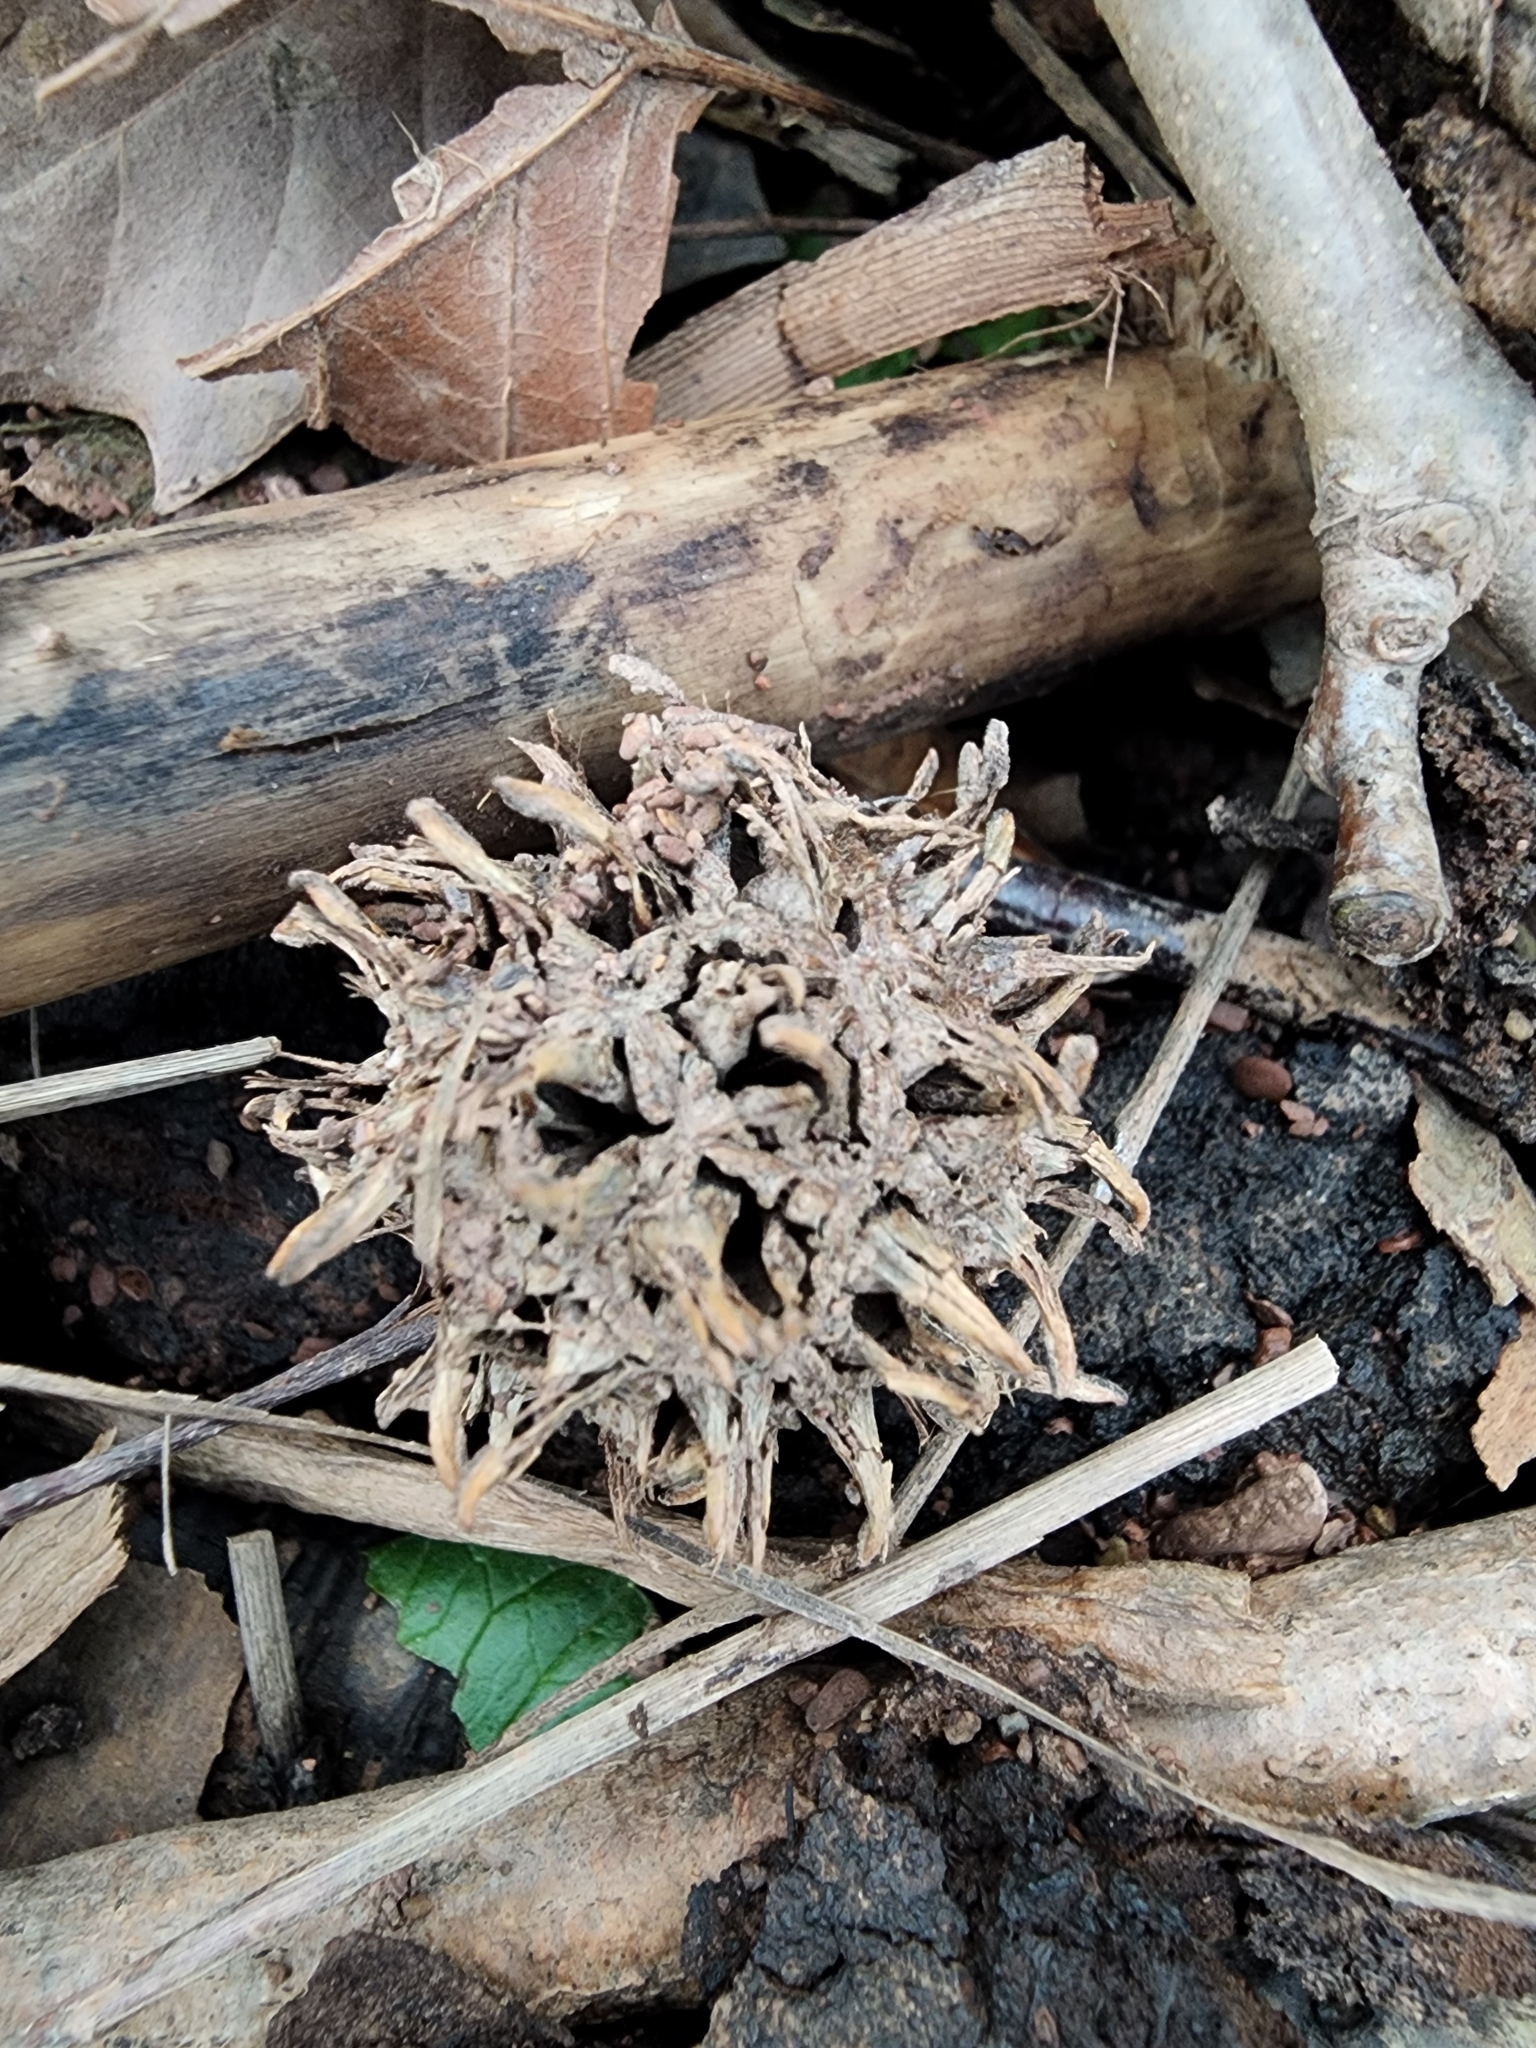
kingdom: Plantae
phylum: Tracheophyta
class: Magnoliopsida
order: Saxifragales
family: Altingiaceae
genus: Liquidambar
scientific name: Liquidambar styraciflua
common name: Sweet gum
